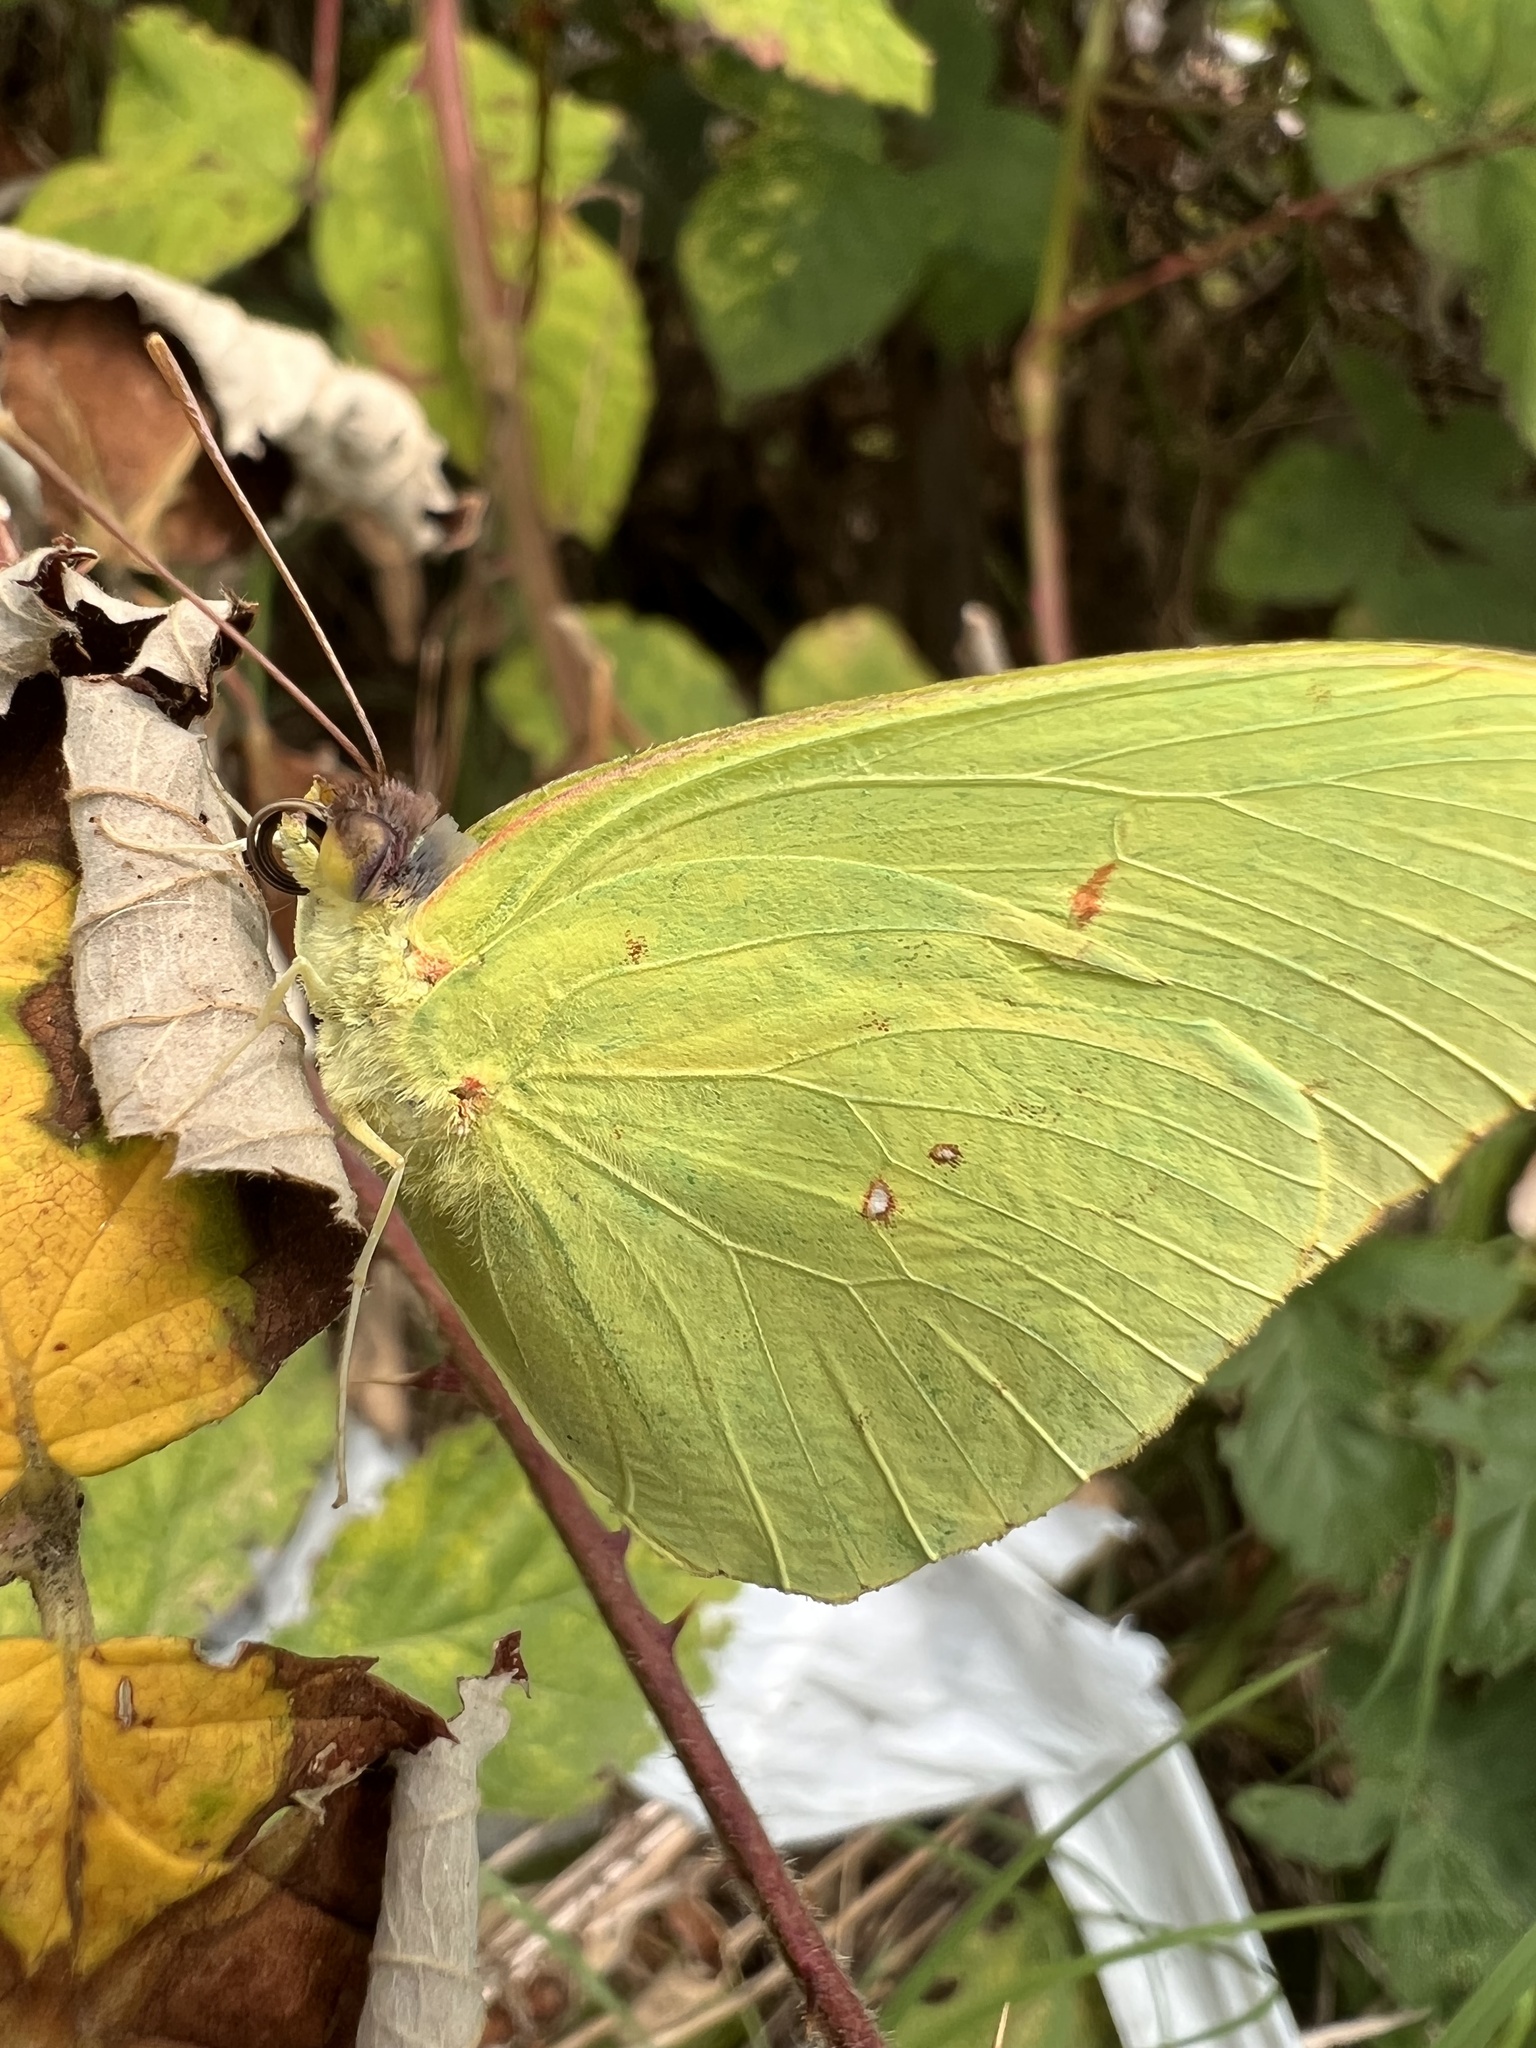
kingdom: Animalia
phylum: Arthropoda
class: Insecta
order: Lepidoptera
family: Pieridae
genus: Phoebis
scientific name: Phoebis sennae
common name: Cloudless sulphur
